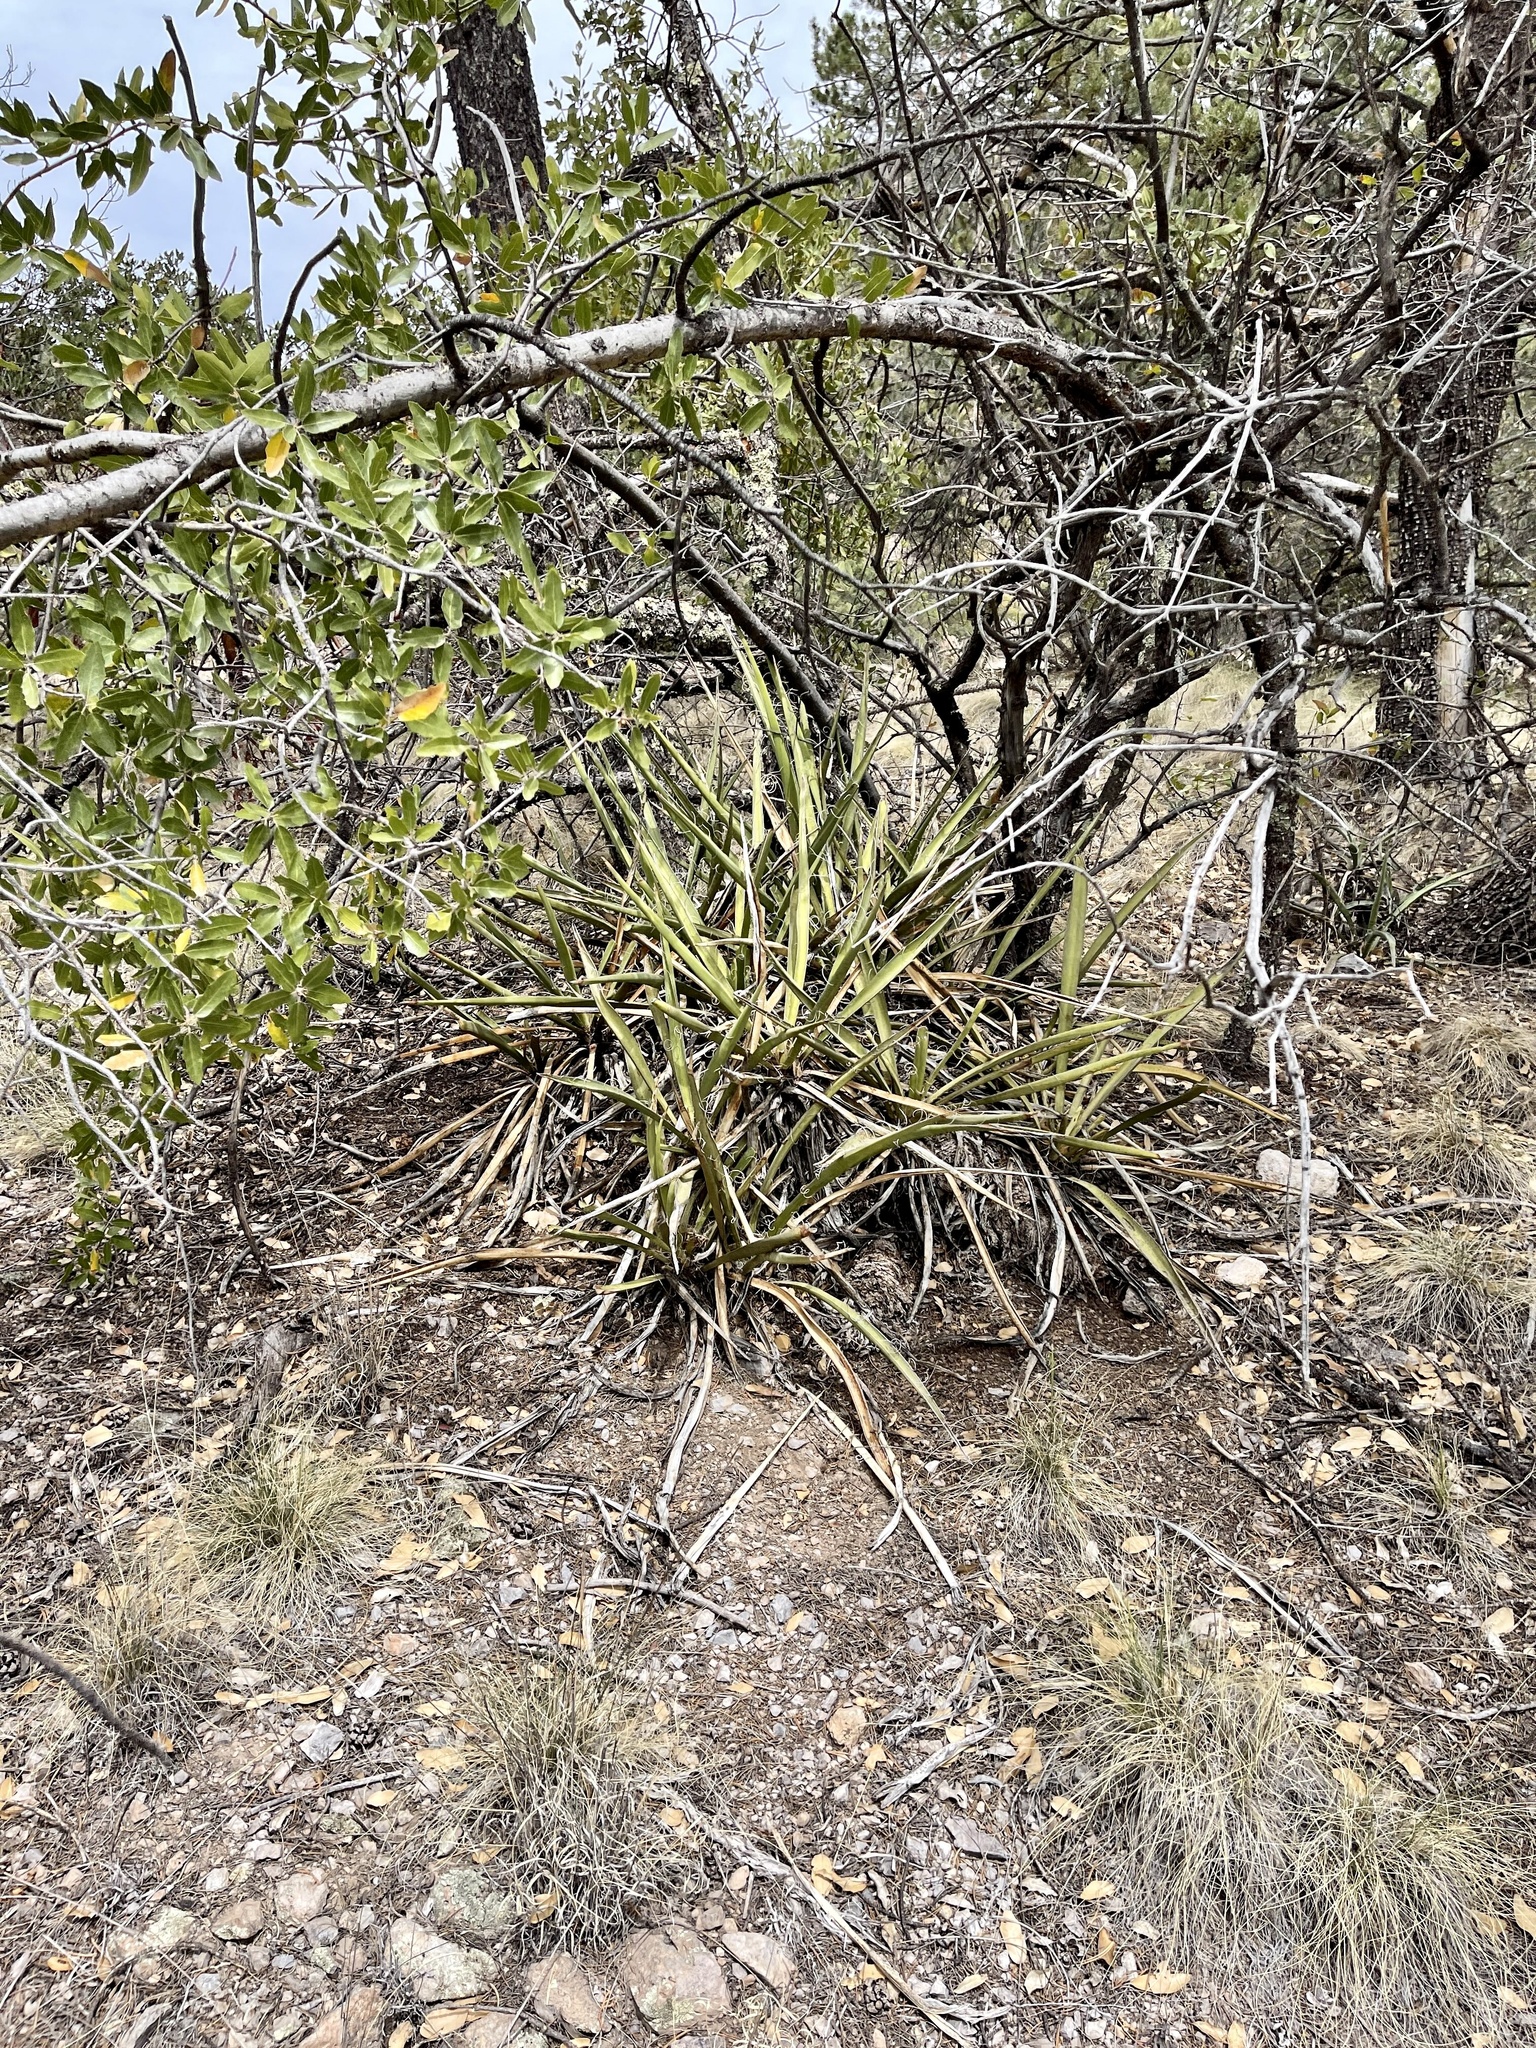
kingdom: Plantae
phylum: Tracheophyta
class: Liliopsida
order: Asparagales
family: Asparagaceae
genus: Yucca
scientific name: Yucca baccata
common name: Banana yucca
